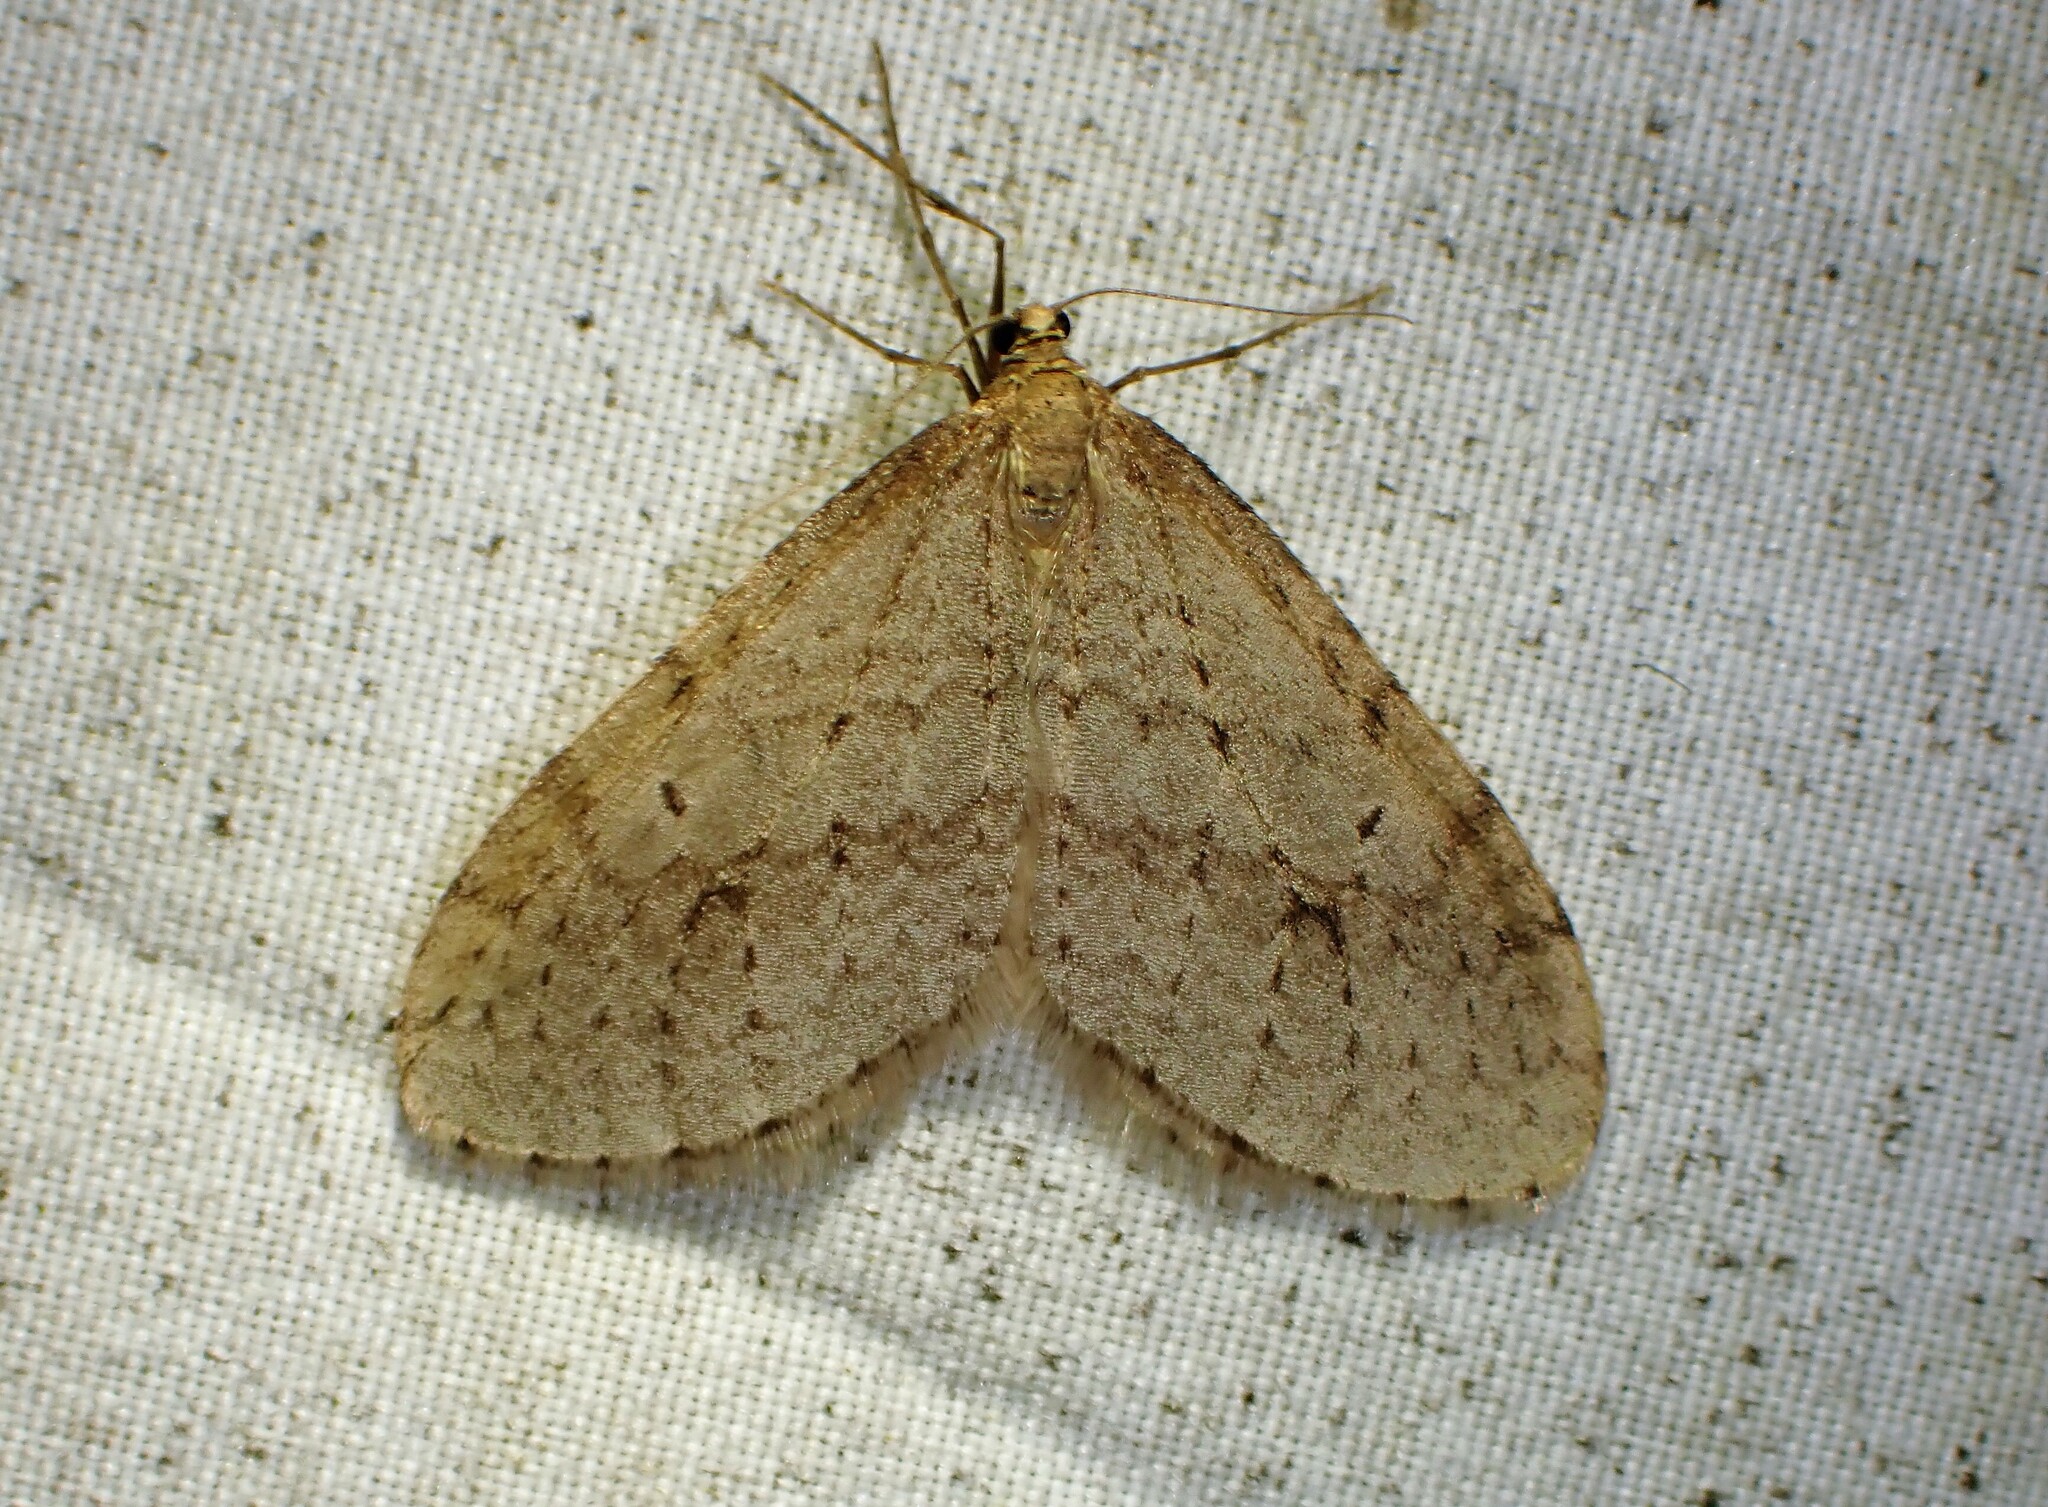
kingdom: Animalia
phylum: Arthropoda
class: Insecta
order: Lepidoptera
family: Geometridae
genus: Operophtera
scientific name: Operophtera bruceata
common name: Bruce spanworm
